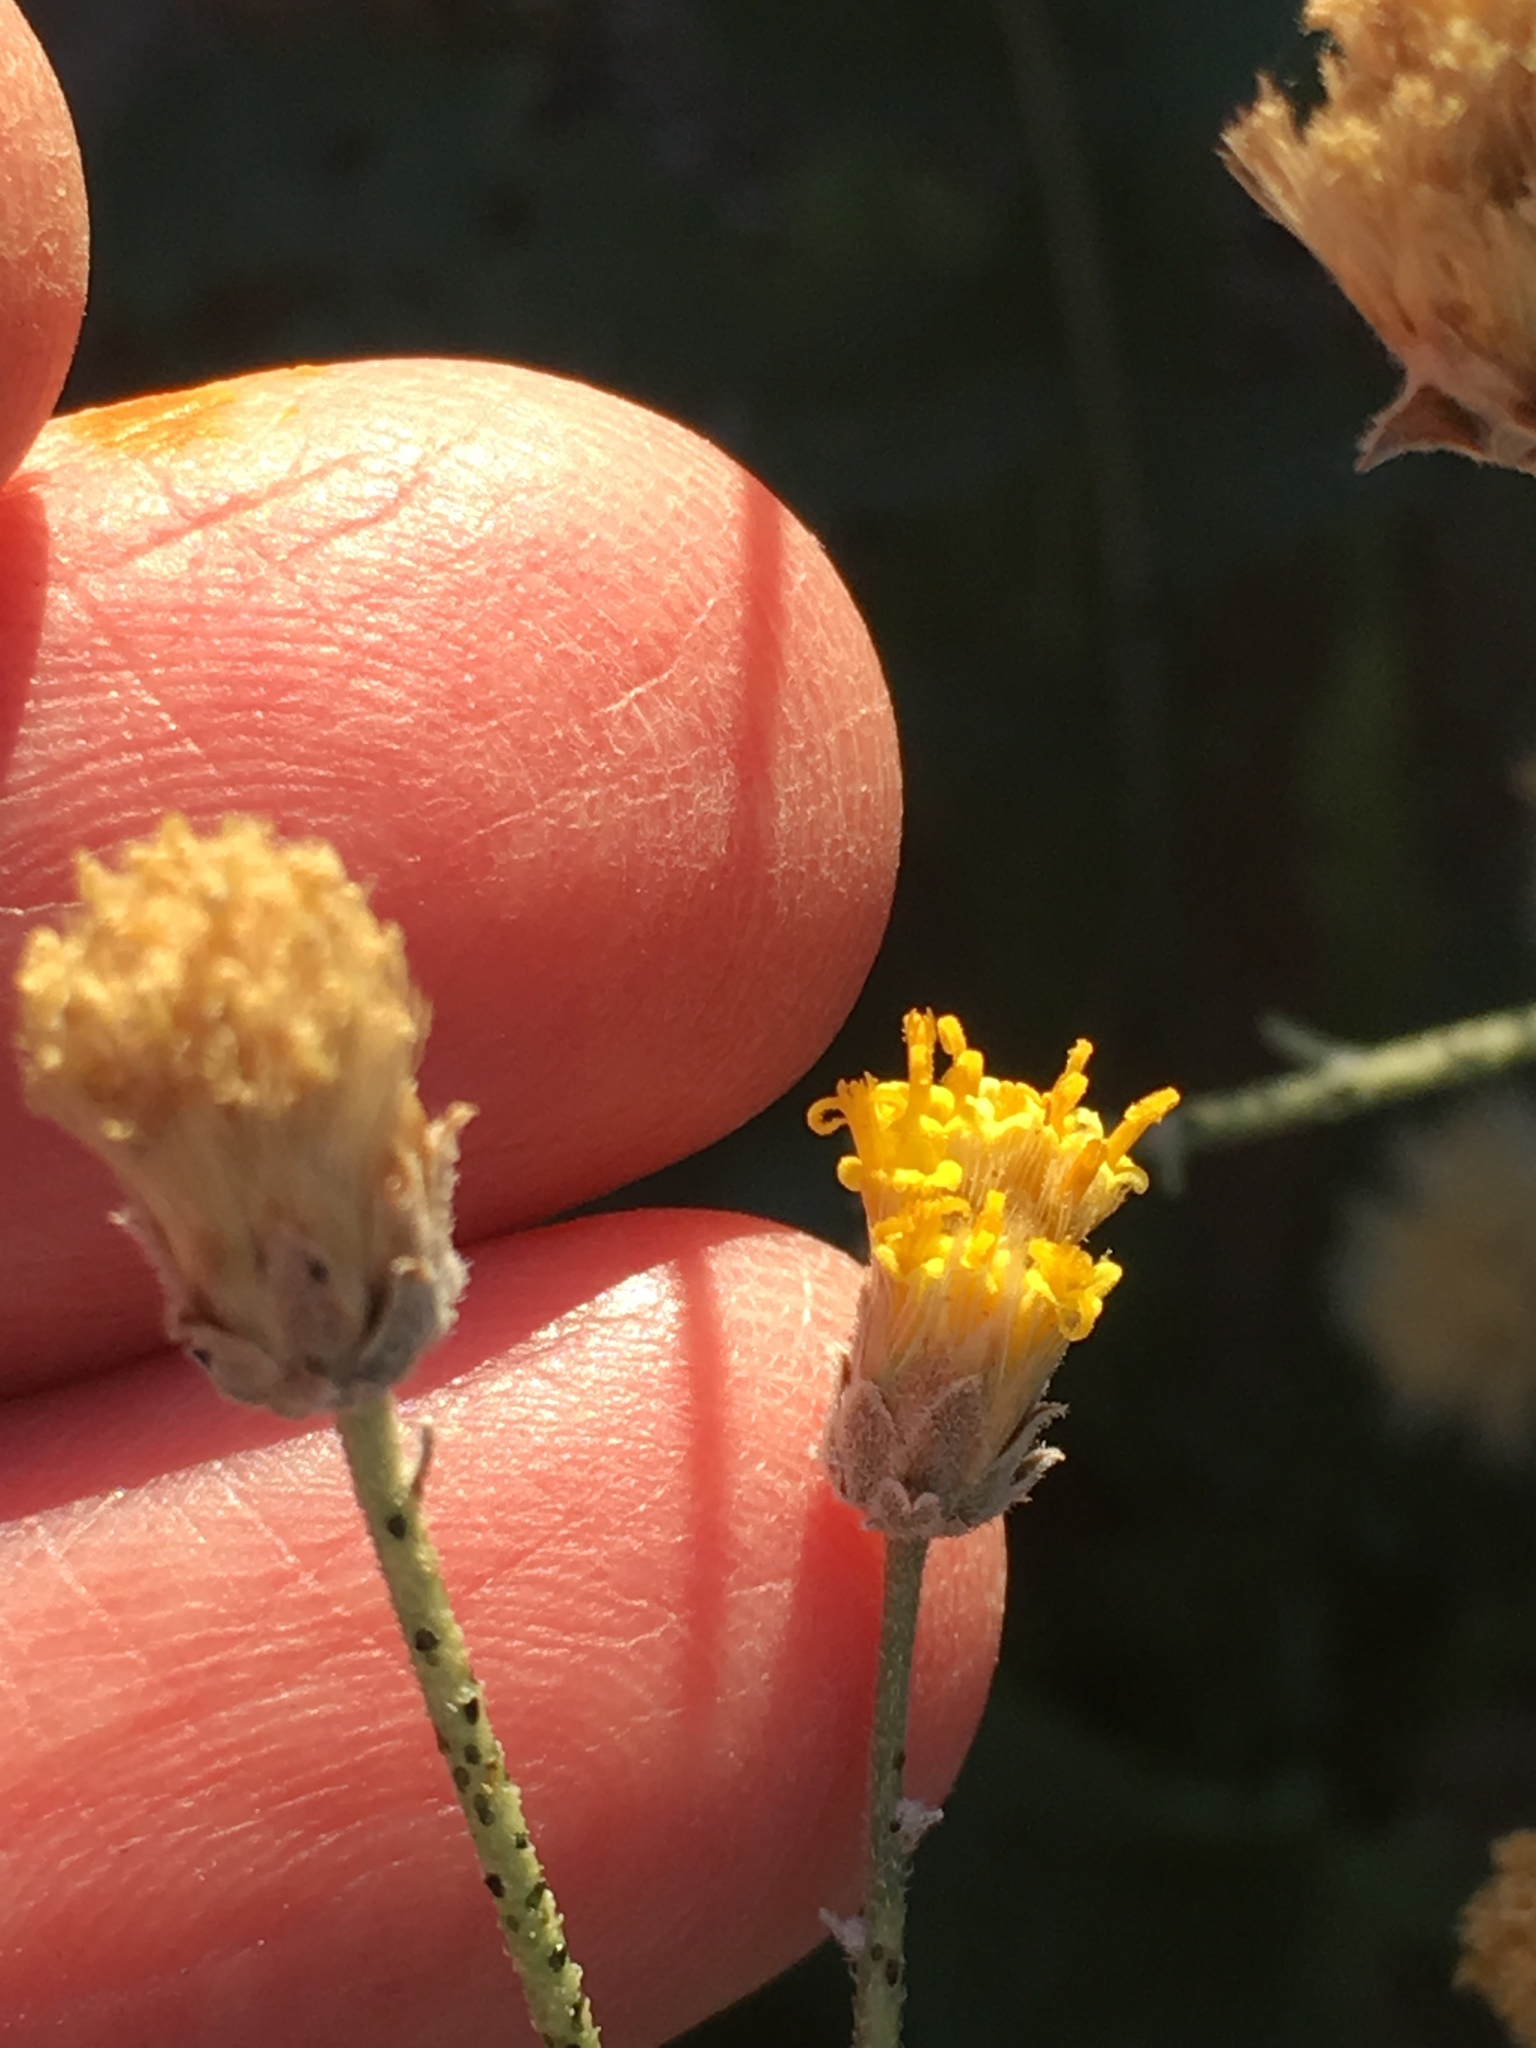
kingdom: Plantae
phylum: Tracheophyta
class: Magnoliopsida
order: Asterales
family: Asteraceae
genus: Bebbia
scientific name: Bebbia juncea
